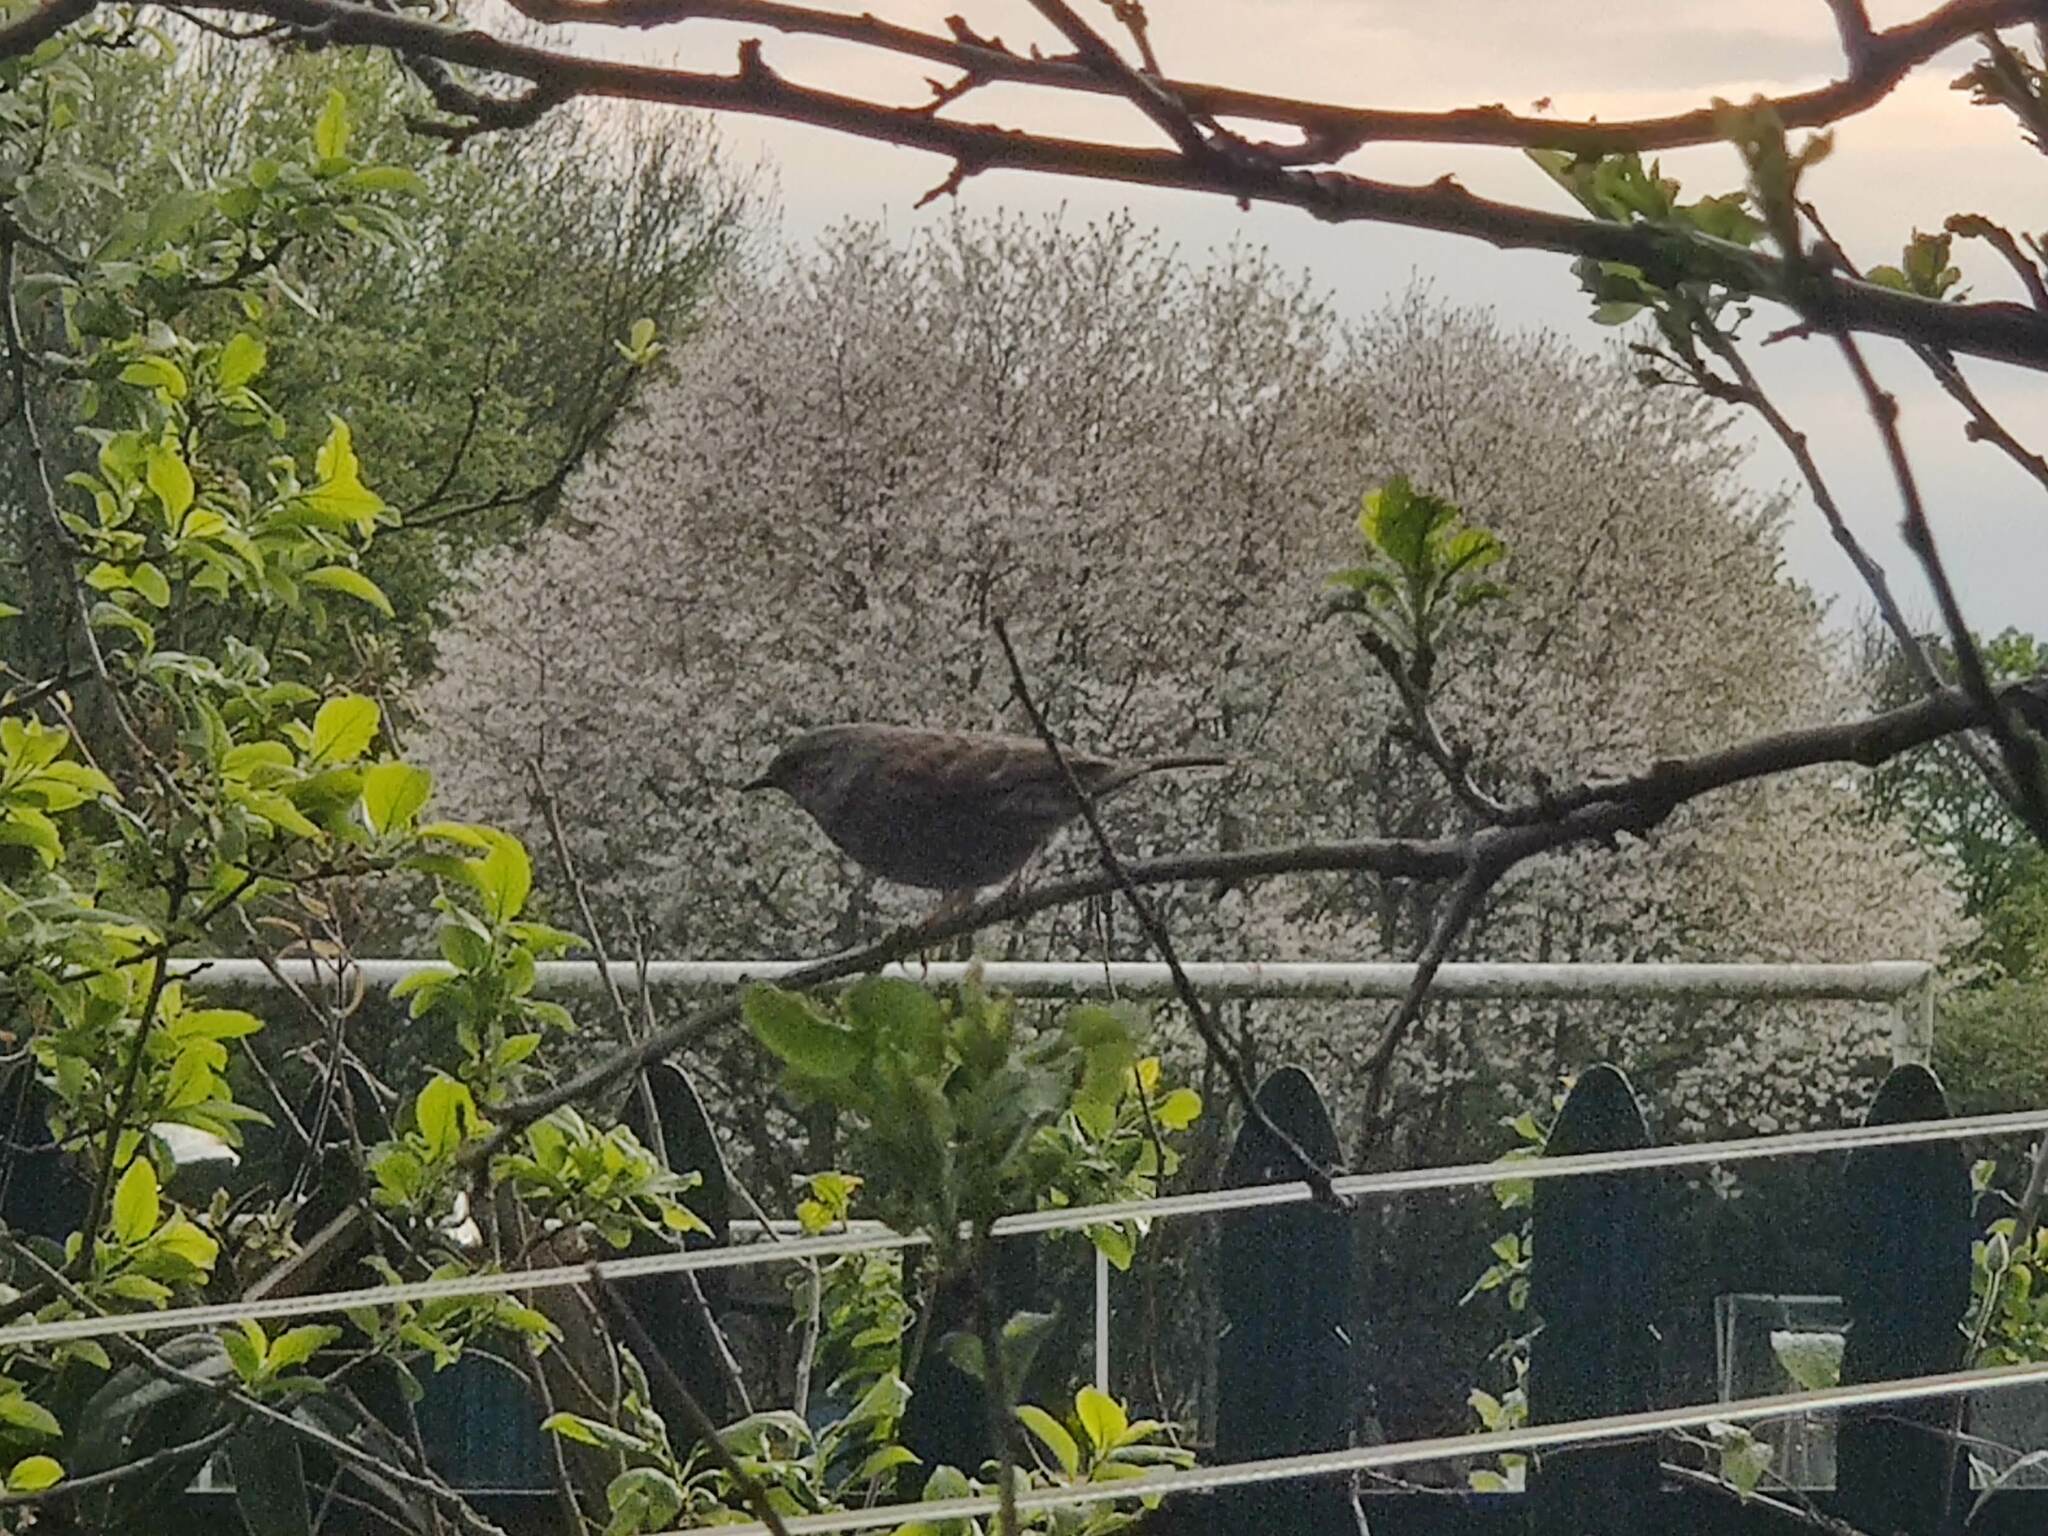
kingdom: Animalia
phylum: Chordata
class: Aves
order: Passeriformes
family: Prunellidae
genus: Prunella
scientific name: Prunella modularis
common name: Dunnock
